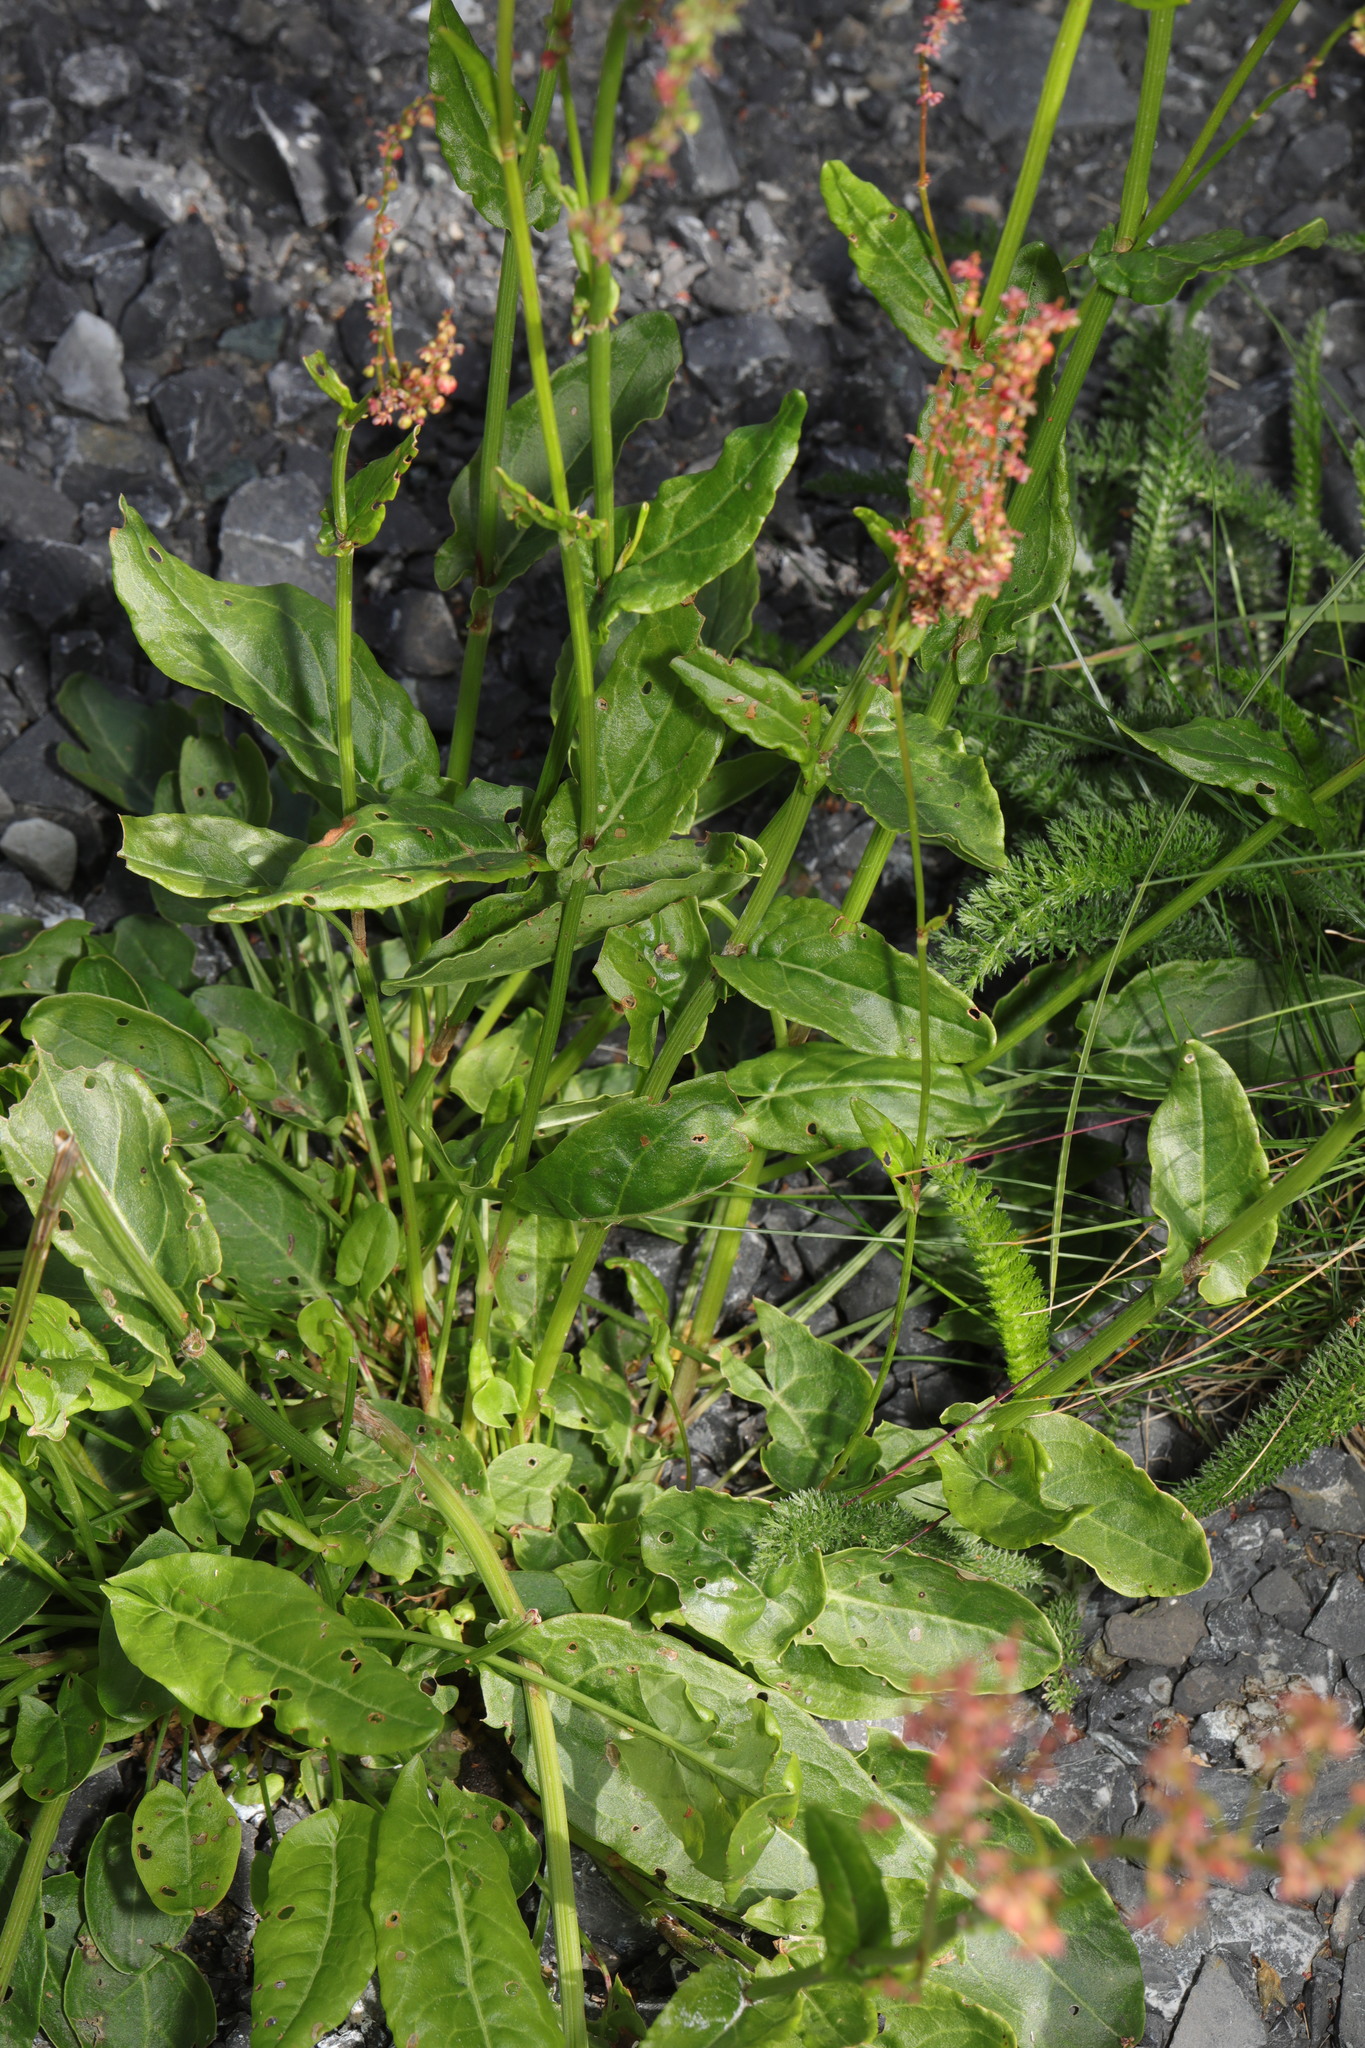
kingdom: Plantae
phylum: Tracheophyta
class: Magnoliopsida
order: Caryophyllales
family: Polygonaceae
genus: Rumex
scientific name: Rumex acetosa
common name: Garden sorrel
